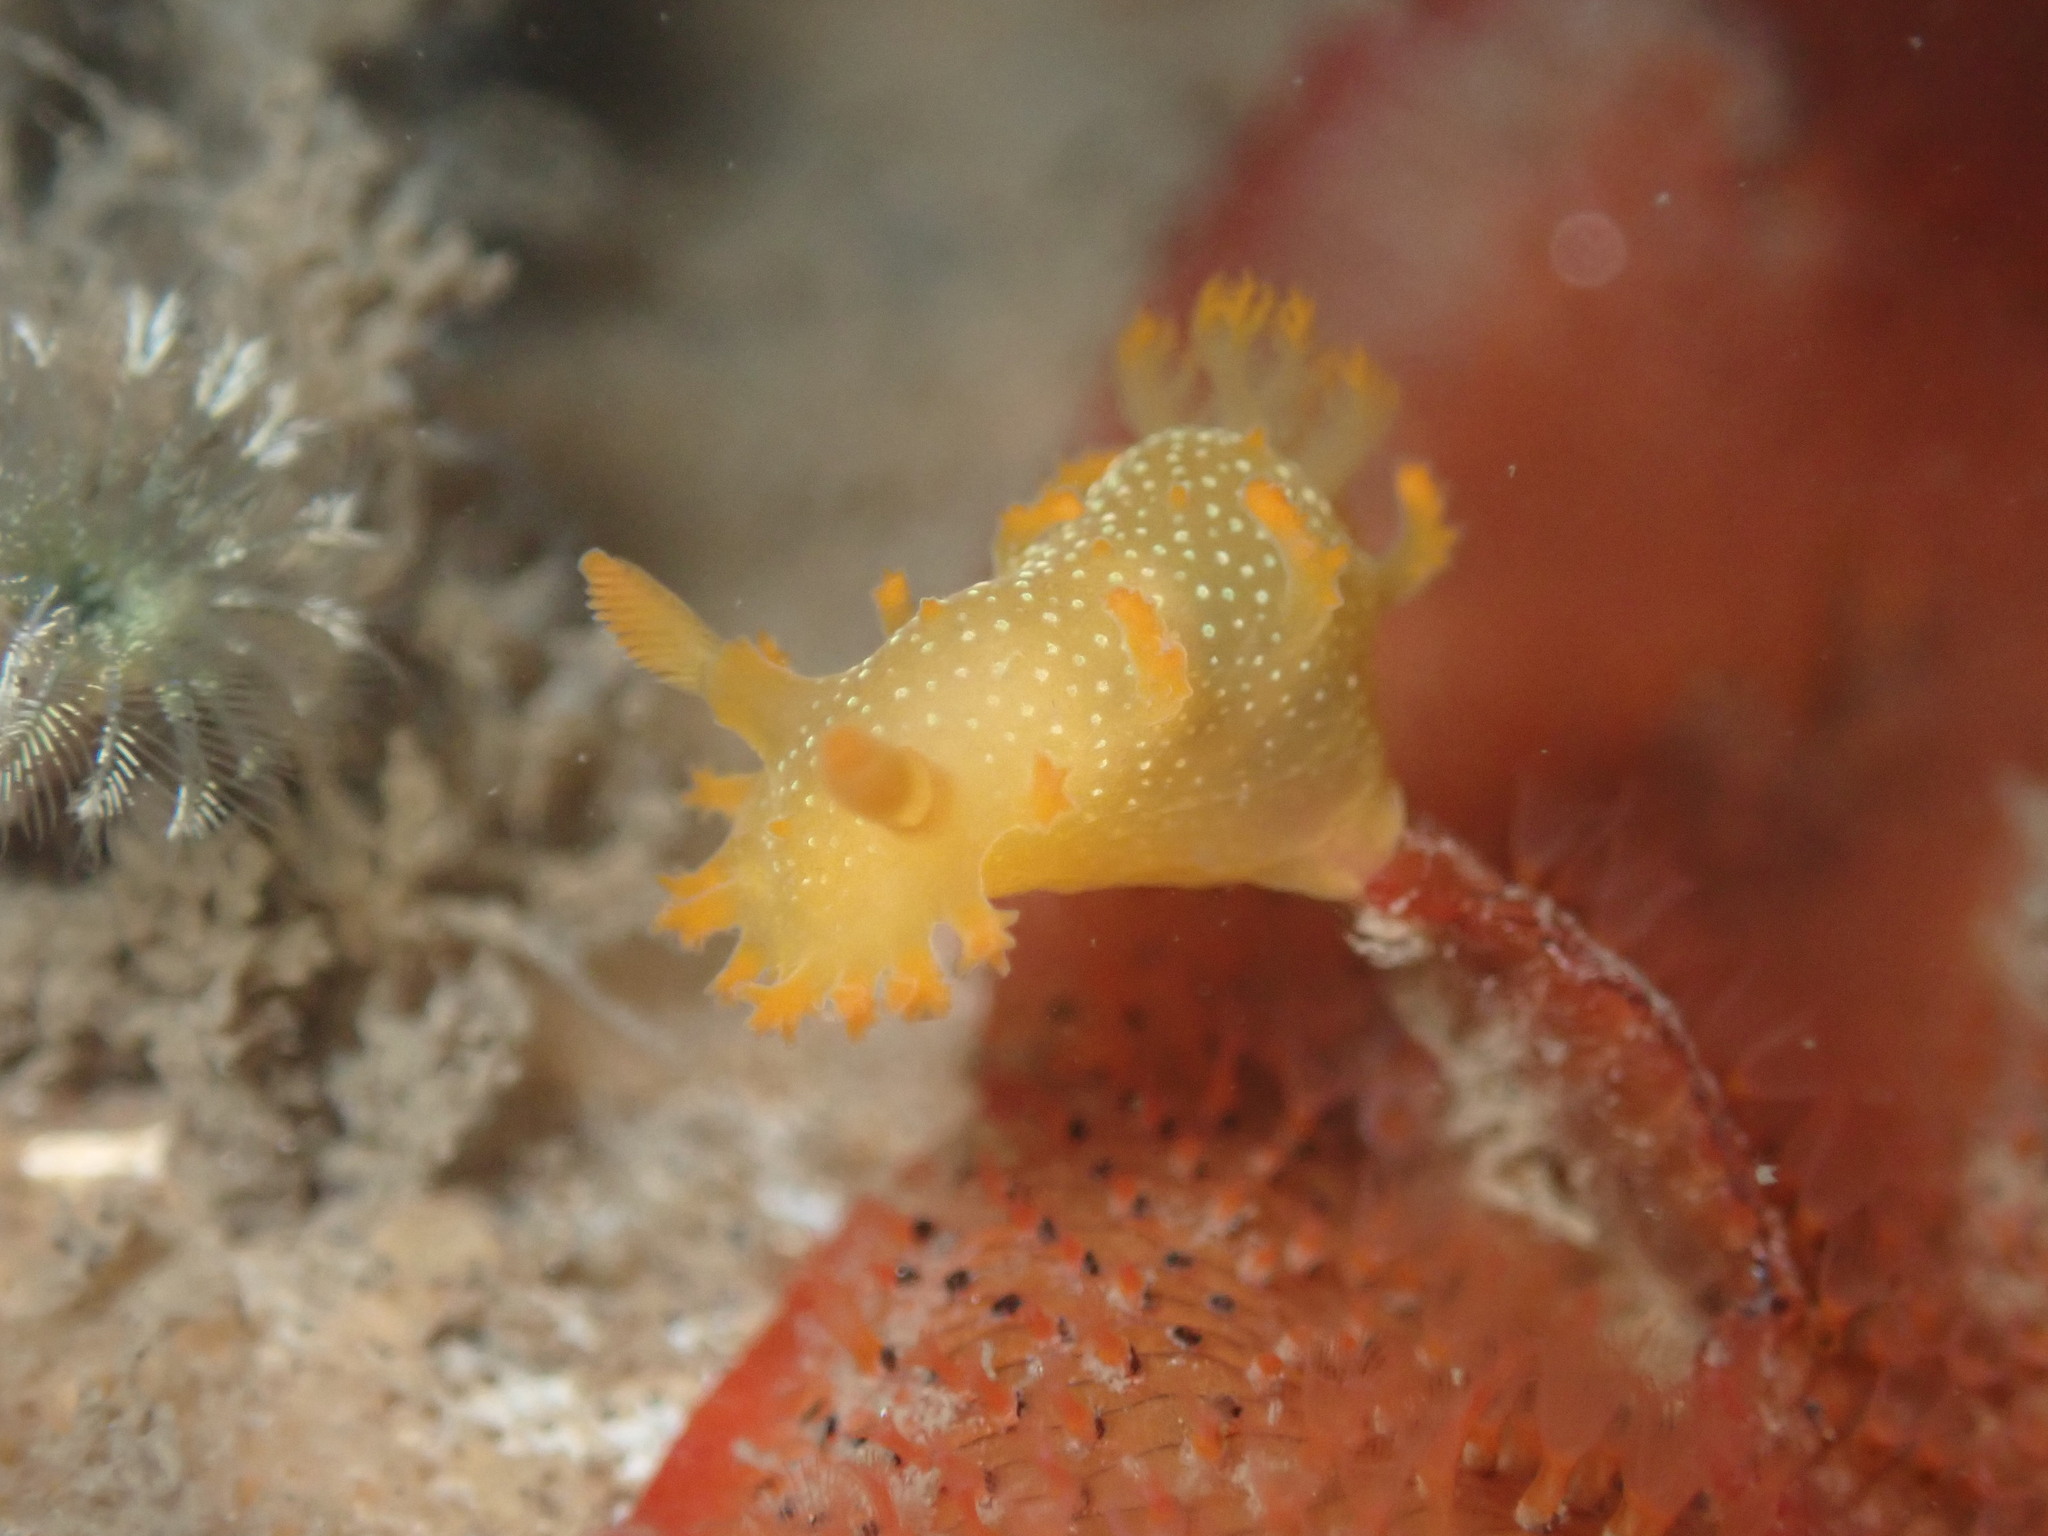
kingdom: Animalia
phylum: Mollusca
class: Gastropoda
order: Nudibranchia
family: Polyceridae
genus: Triopha
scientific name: Triopha maculata
